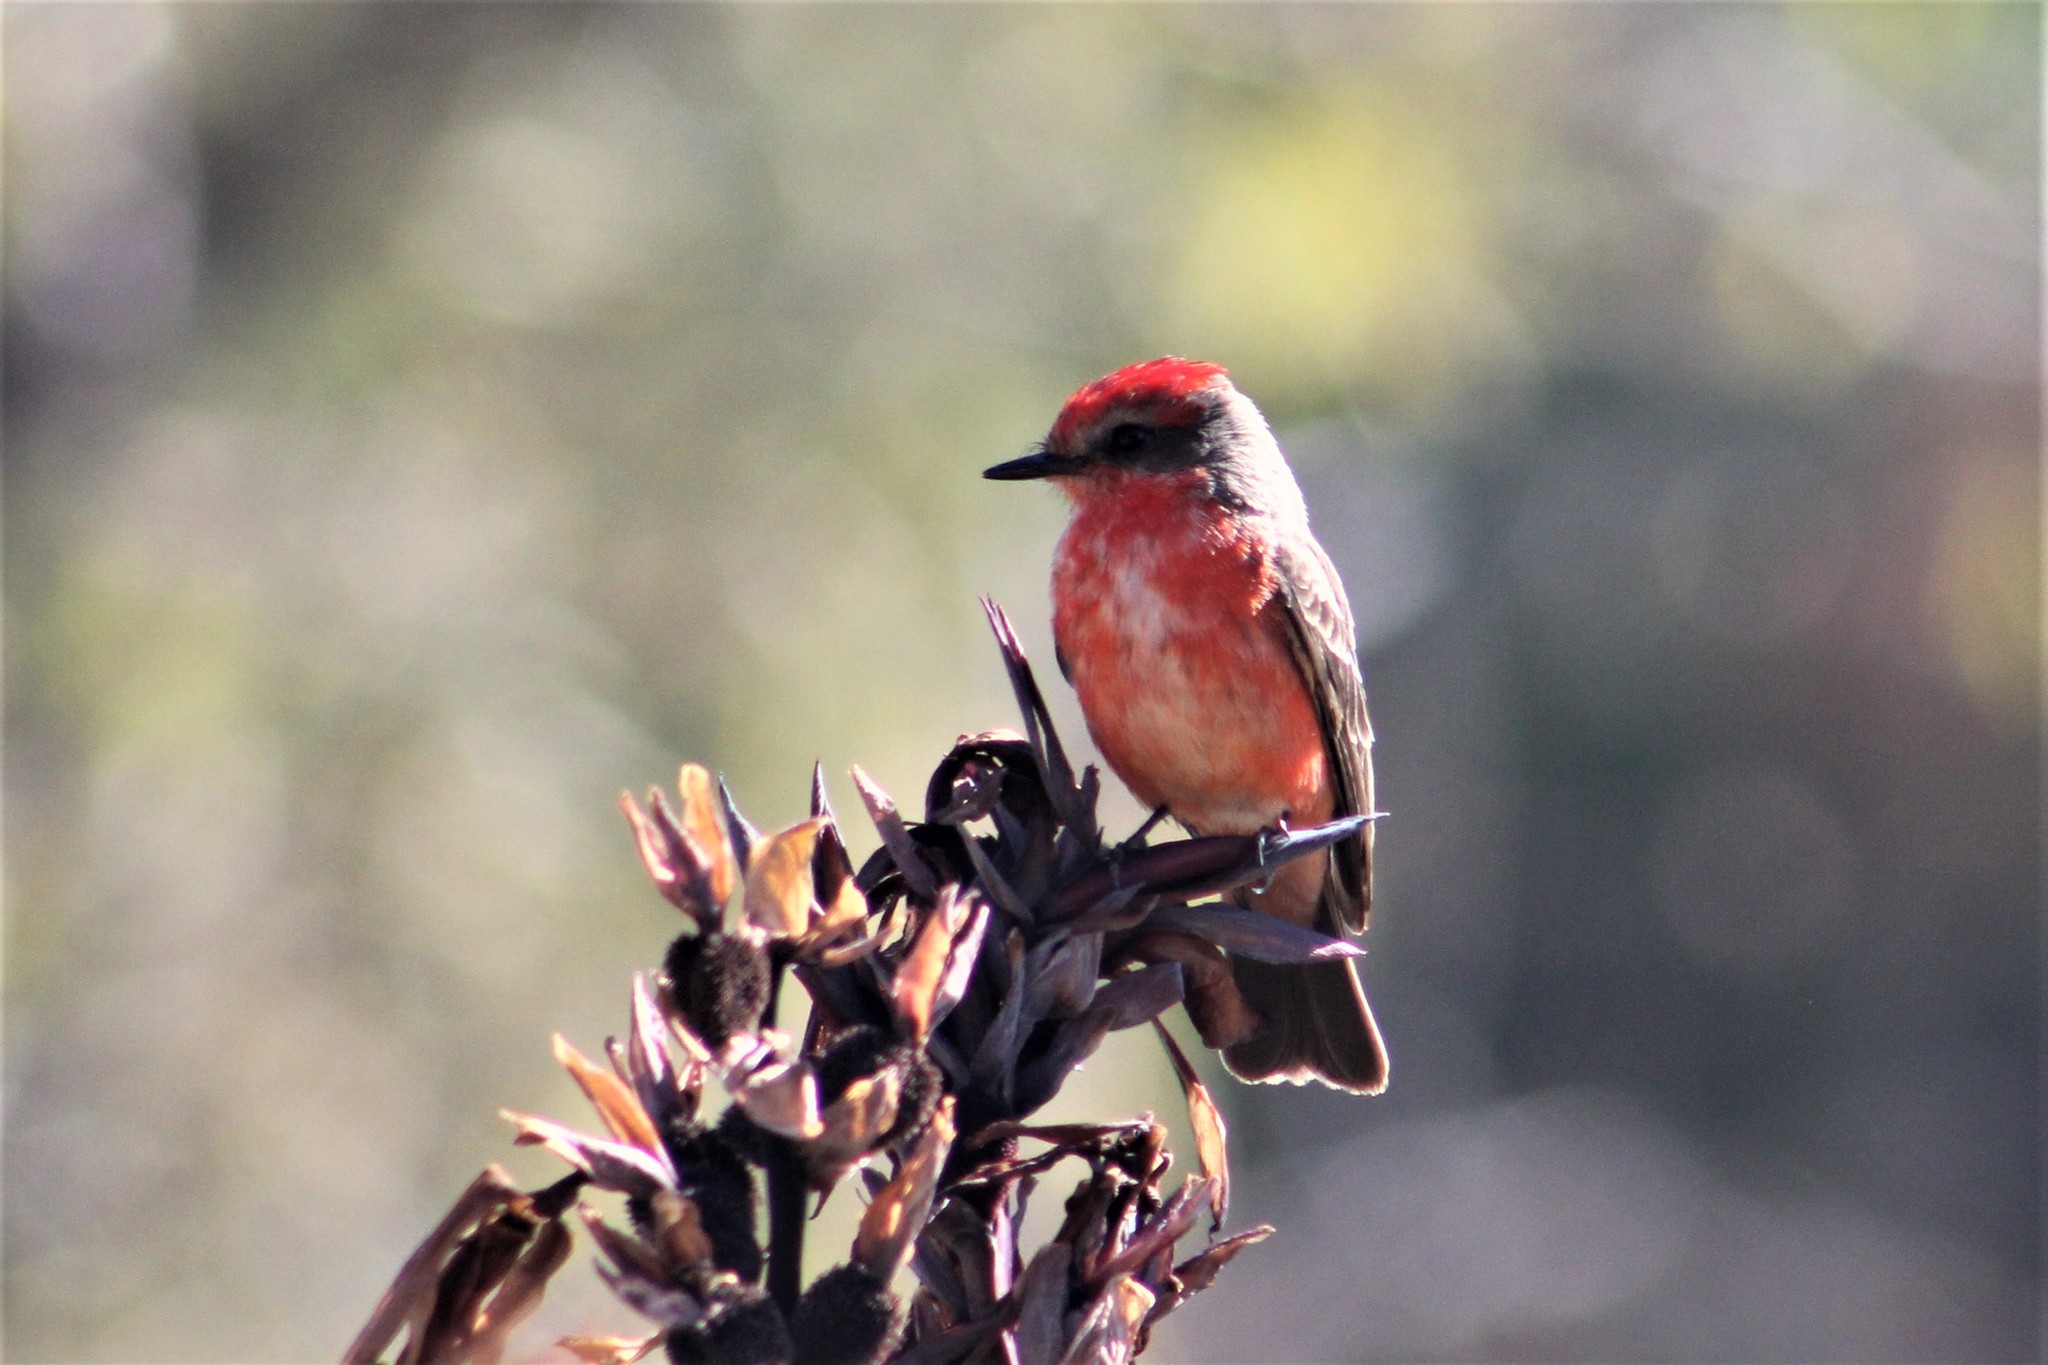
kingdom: Animalia
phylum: Chordata
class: Aves
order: Passeriformes
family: Tyrannidae
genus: Pyrocephalus
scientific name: Pyrocephalus rubinus
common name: Vermilion flycatcher
